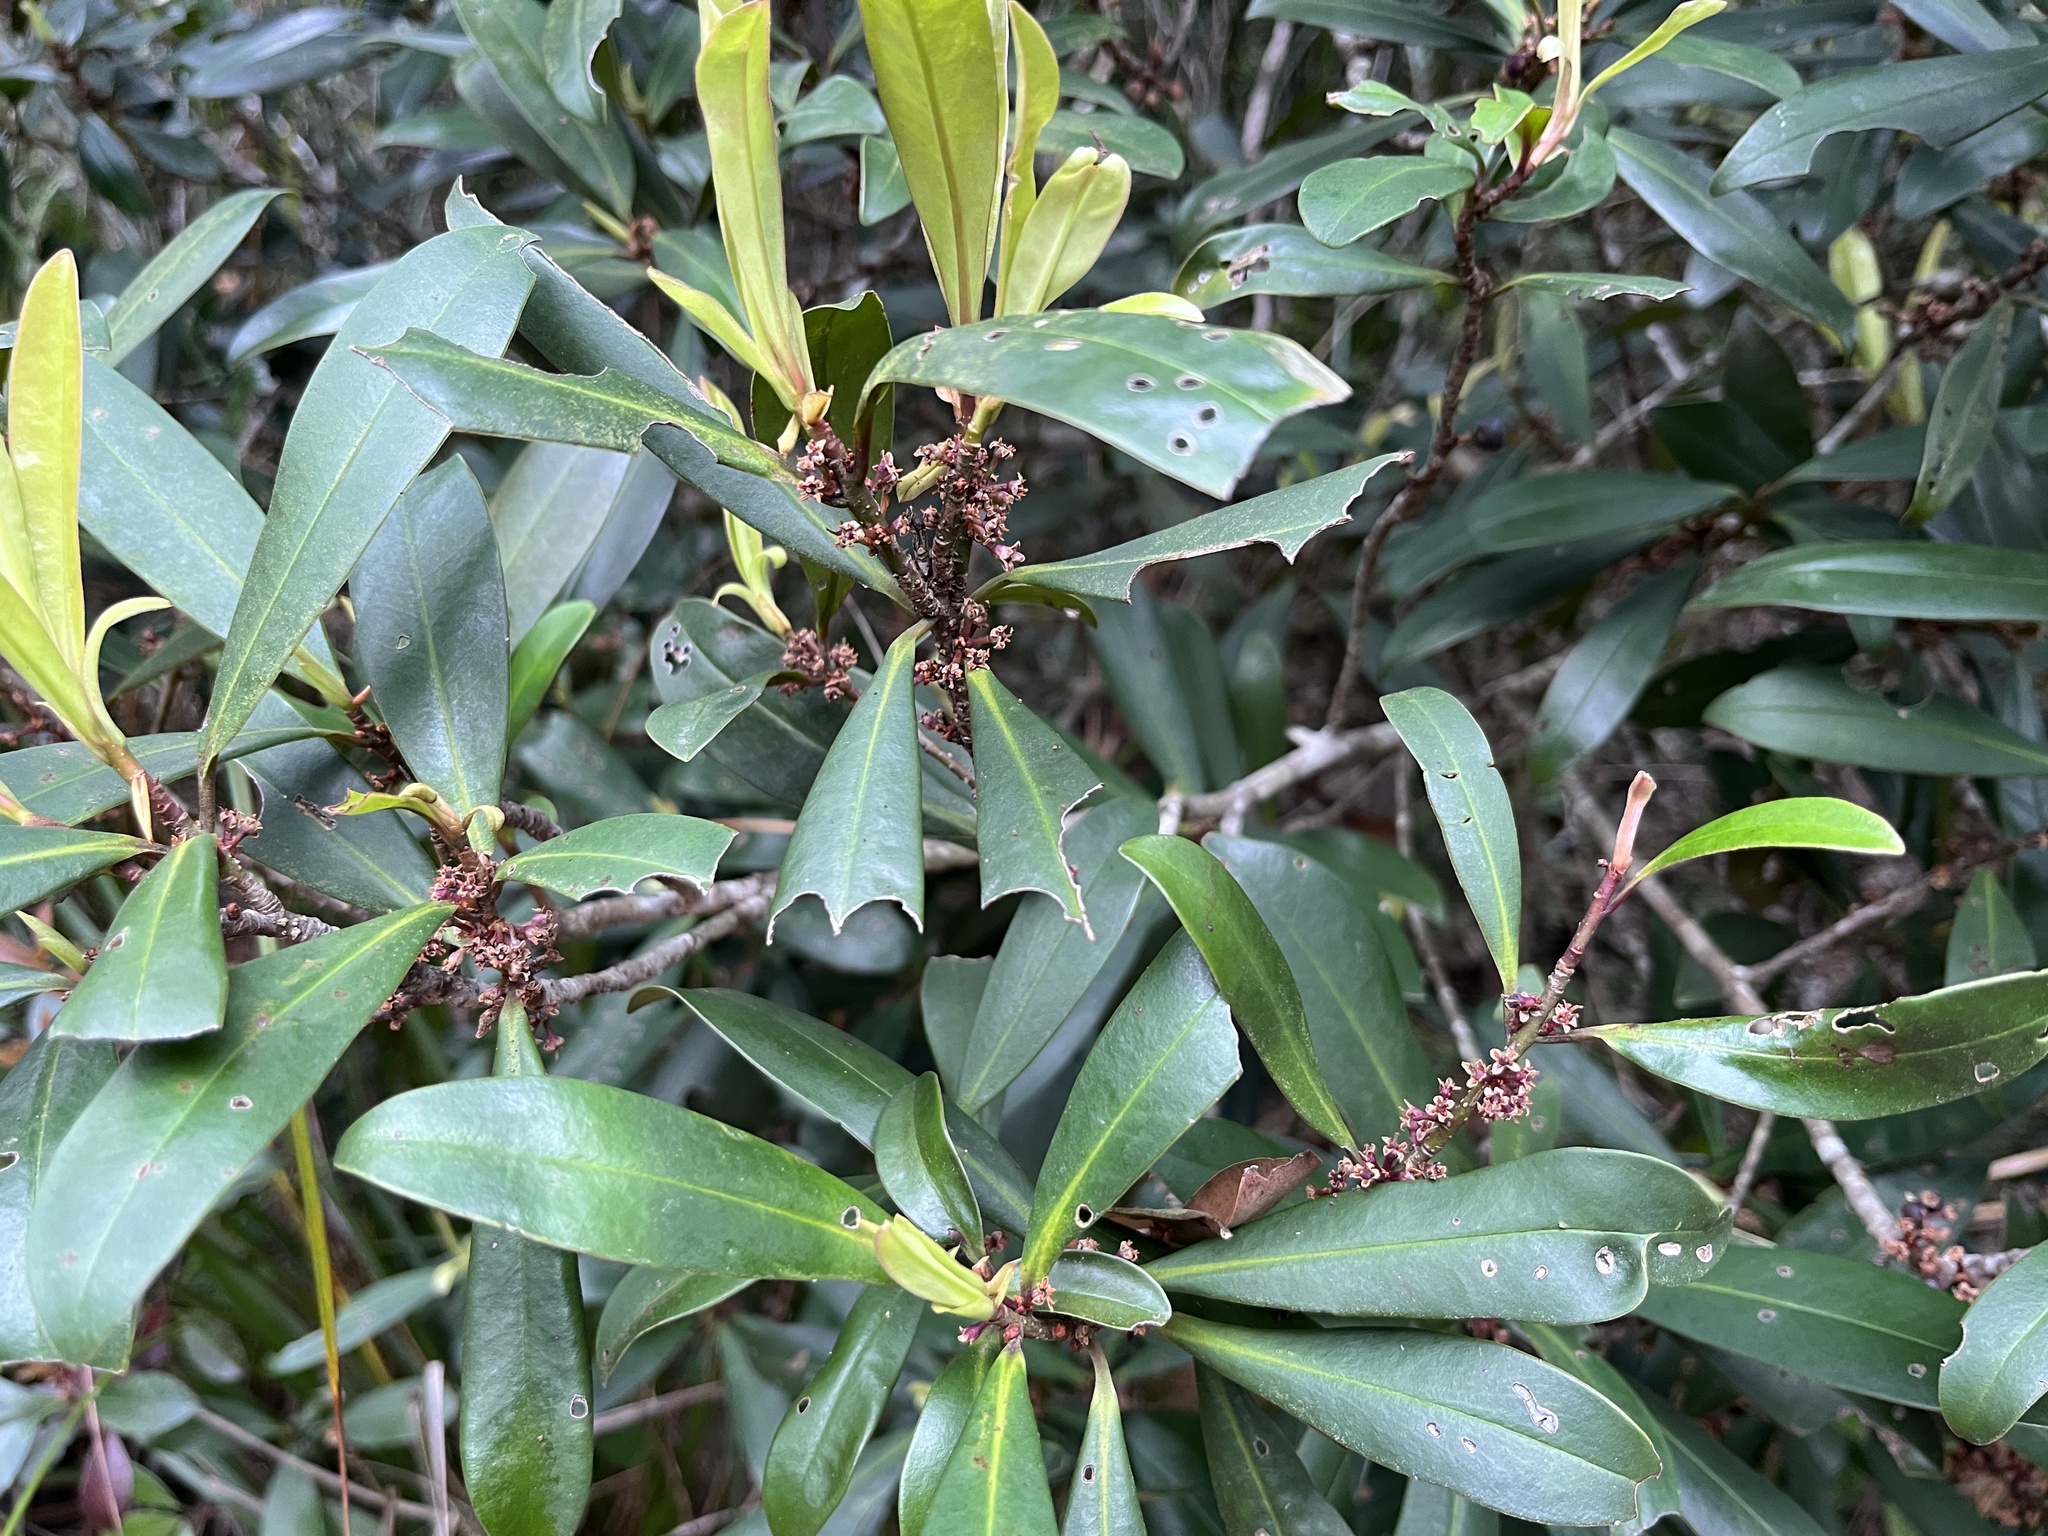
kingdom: Plantae
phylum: Tracheophyta
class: Magnoliopsida
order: Ericales
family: Primulaceae
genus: Myrsine
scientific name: Myrsine seguinii
